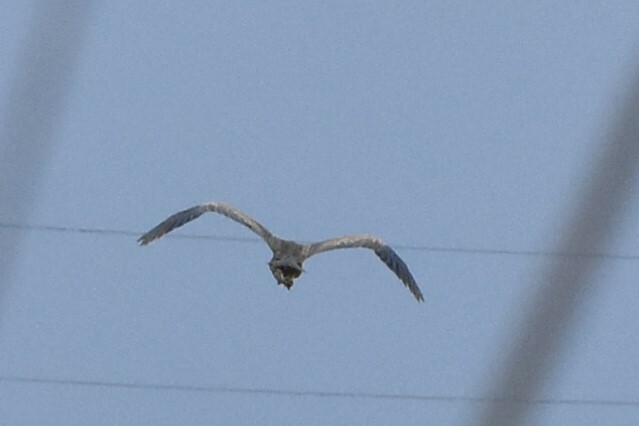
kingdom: Animalia
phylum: Chordata
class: Aves
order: Pelecaniformes
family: Ardeidae
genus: Ardea
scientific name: Ardea cinerea
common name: Grey heron
